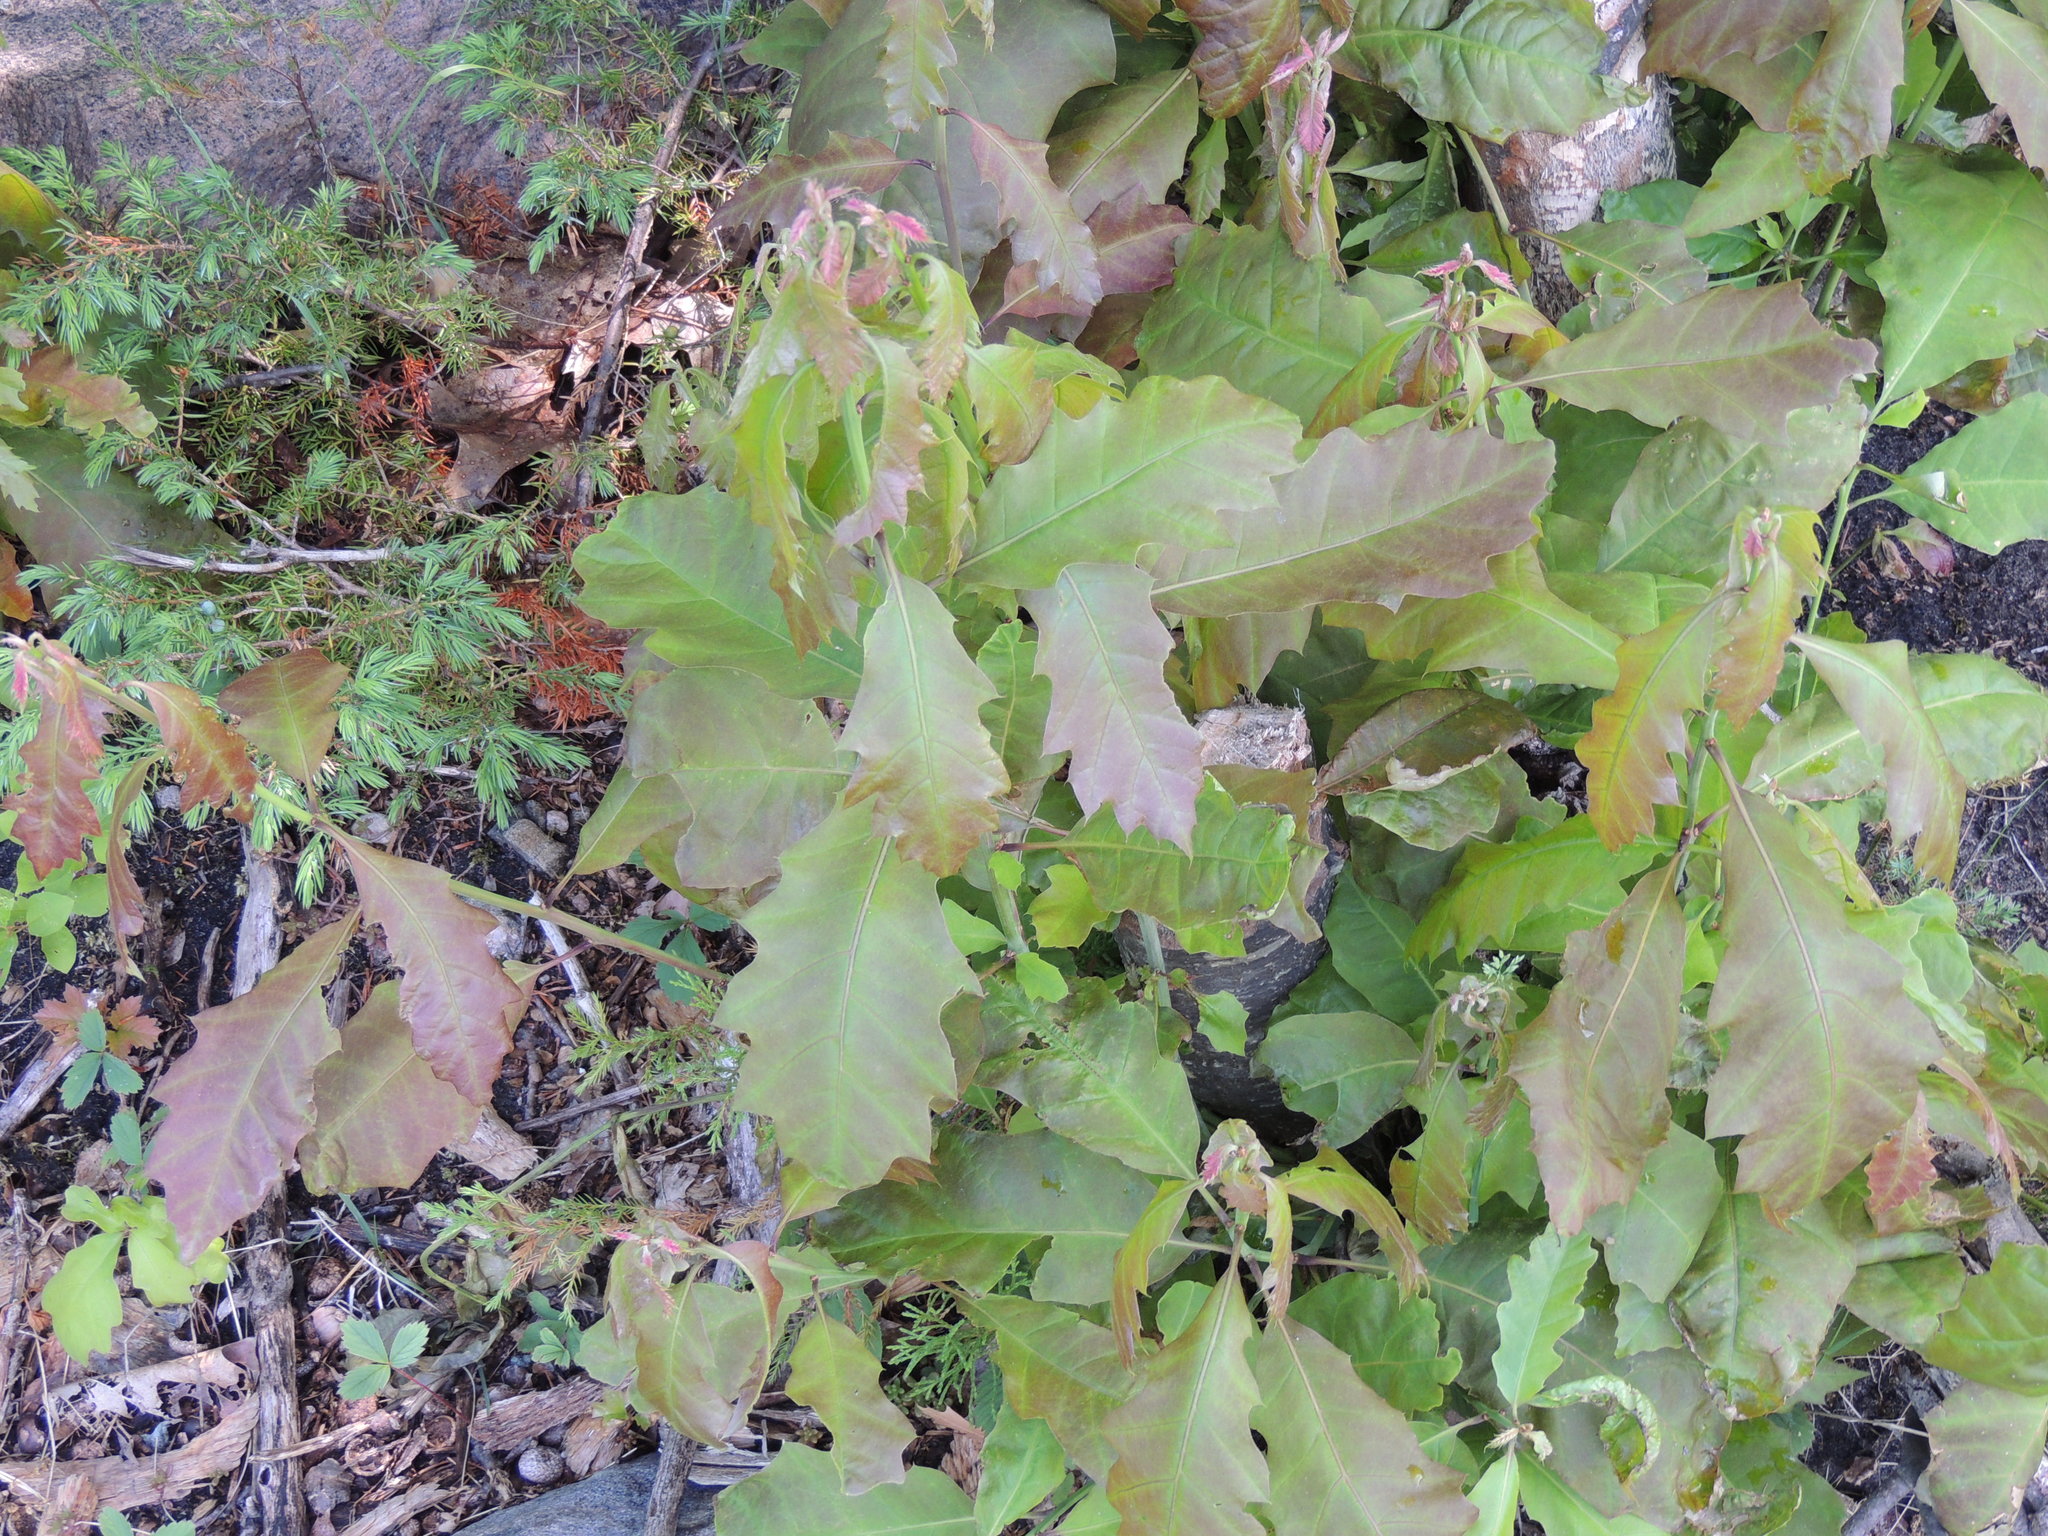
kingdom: Plantae
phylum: Tracheophyta
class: Magnoliopsida
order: Fagales
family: Fagaceae
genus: Quercus
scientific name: Quercus rubra
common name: Red oak
